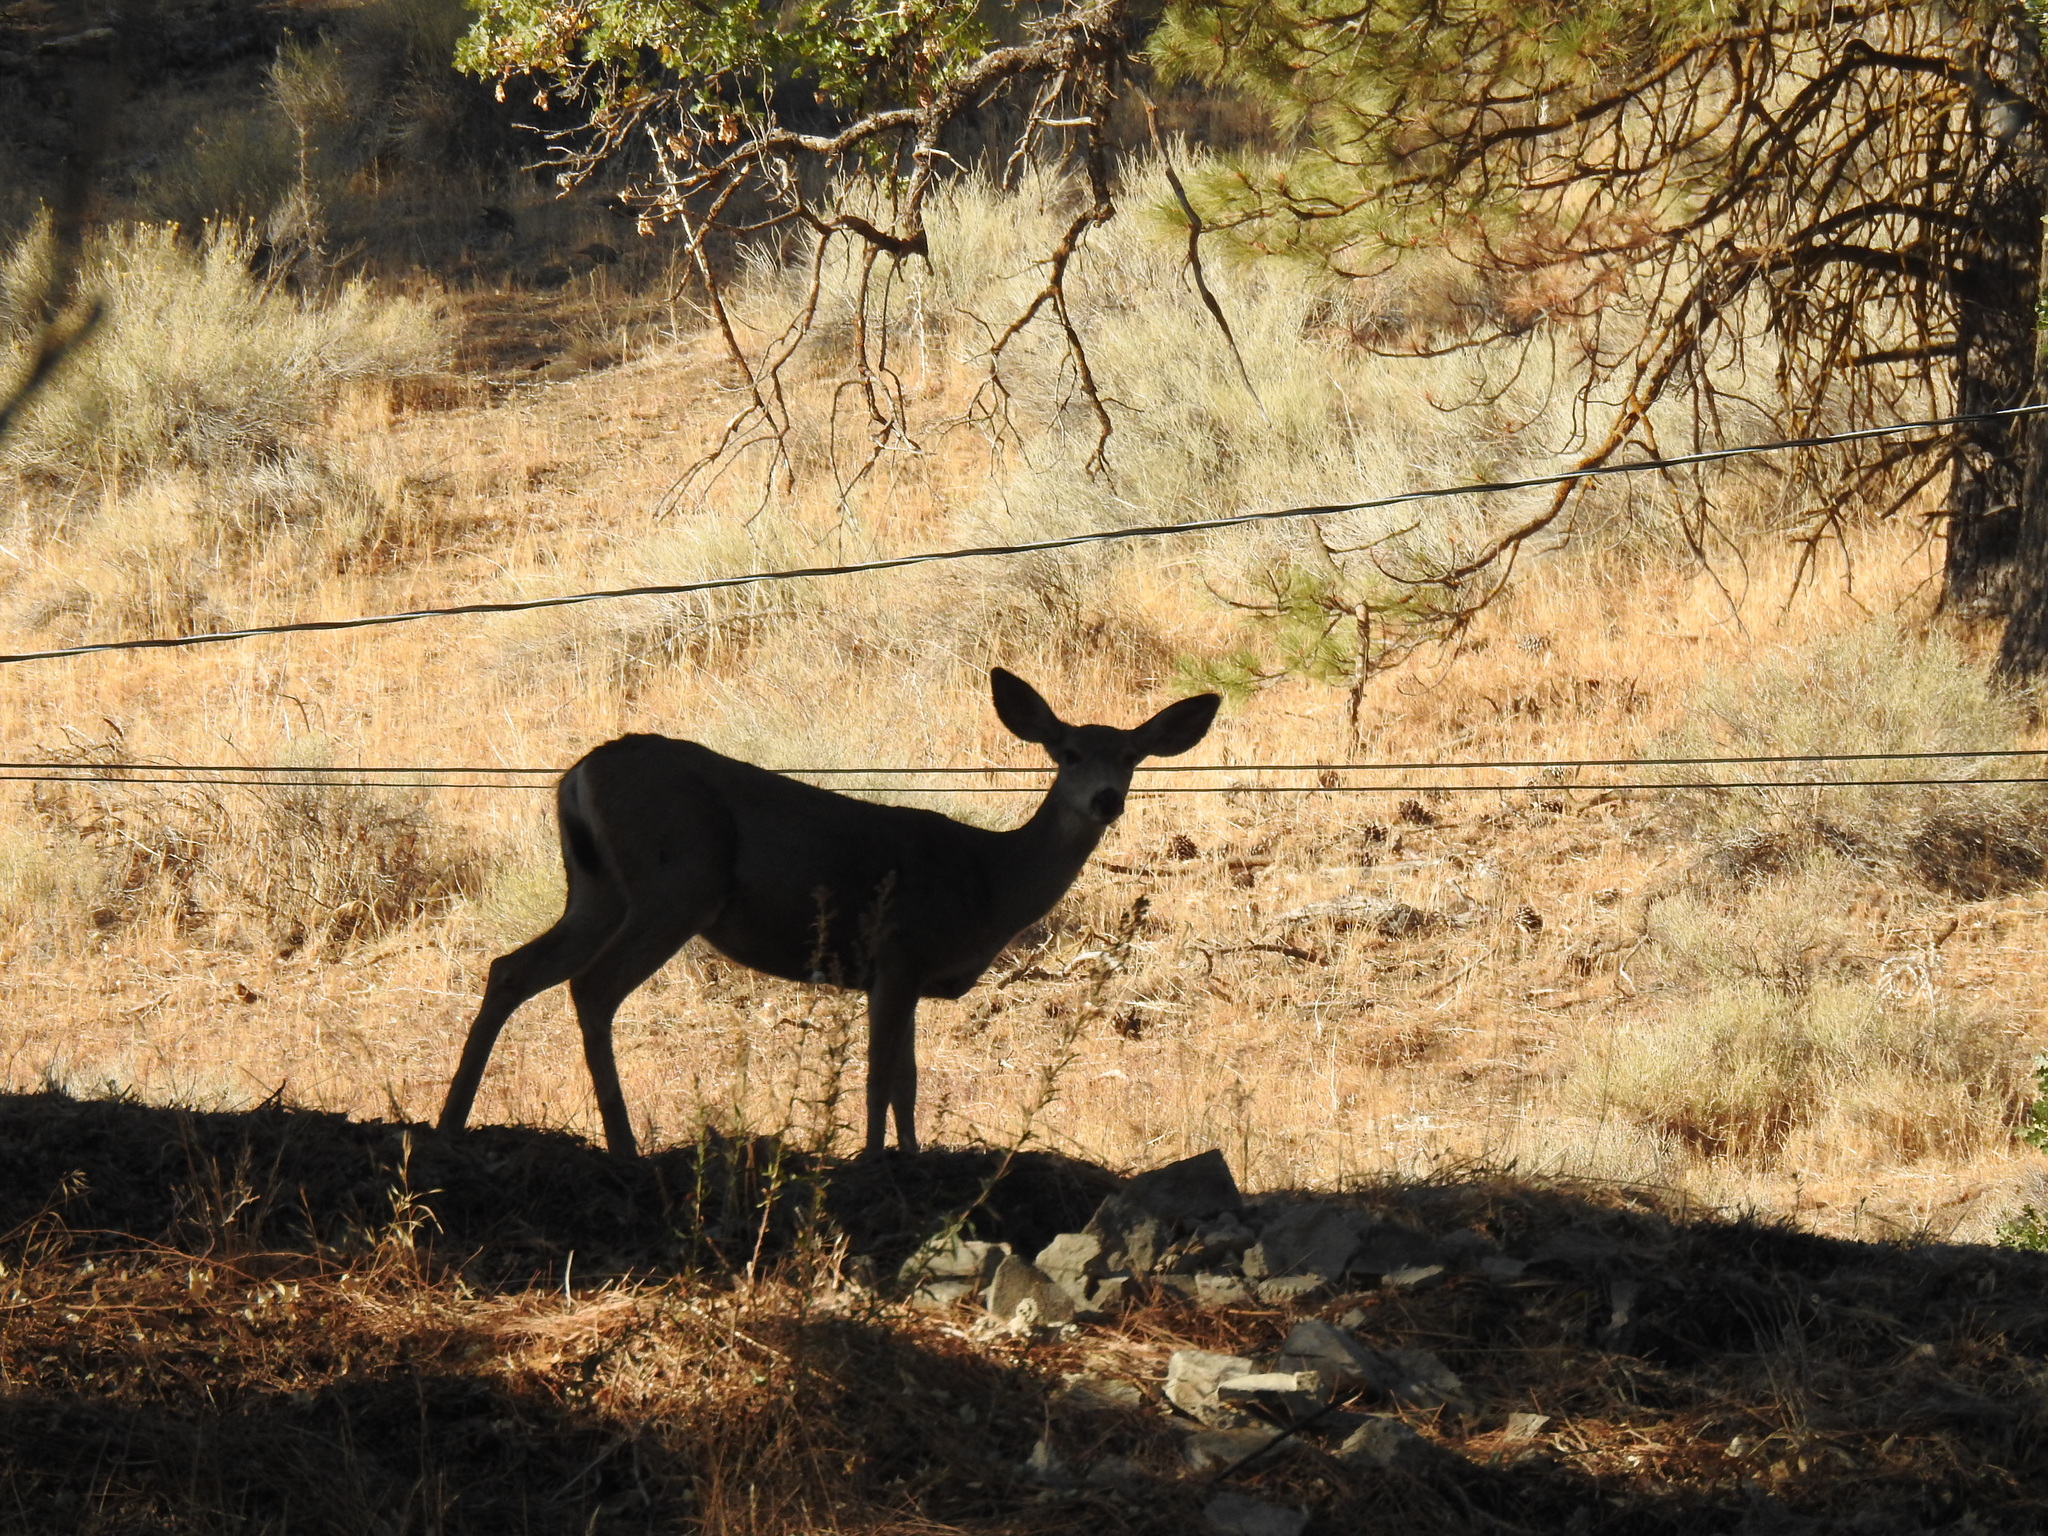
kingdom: Animalia
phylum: Chordata
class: Mammalia
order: Artiodactyla
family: Cervidae
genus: Odocoileus
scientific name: Odocoileus hemionus
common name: Mule deer
